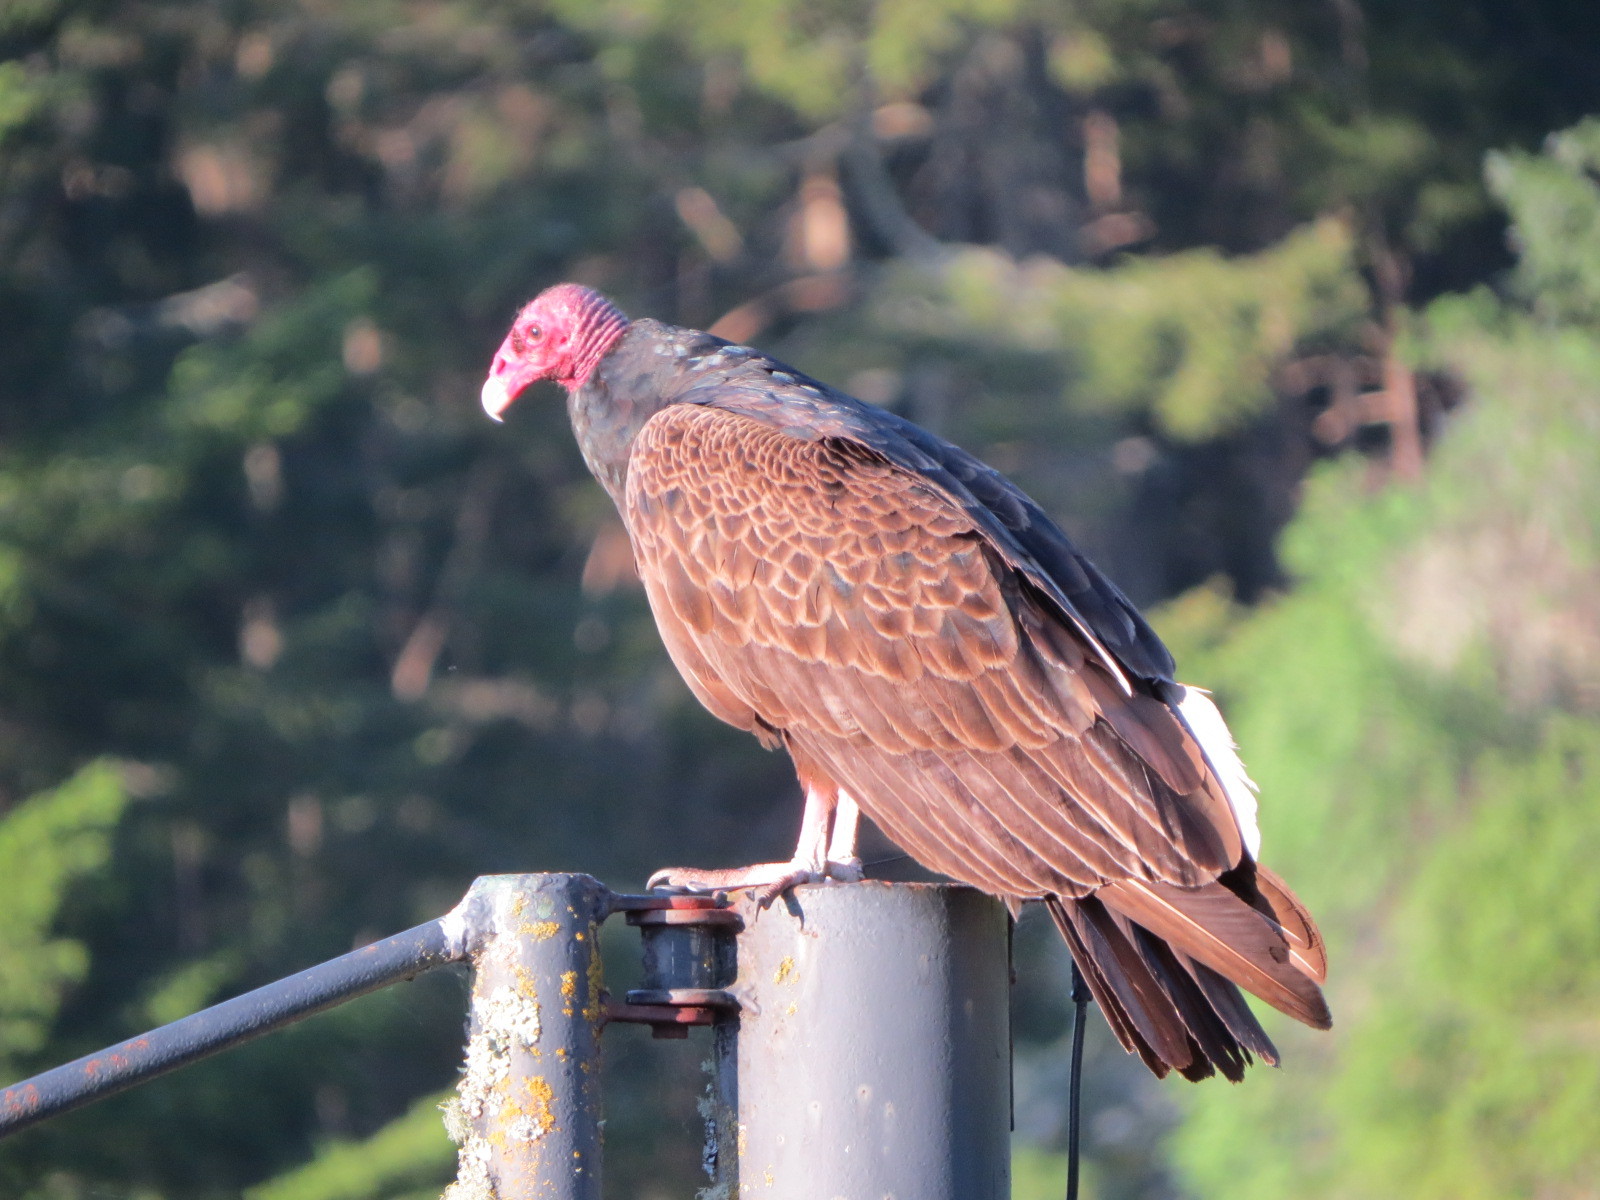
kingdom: Animalia
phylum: Chordata
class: Aves
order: Accipitriformes
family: Cathartidae
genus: Cathartes
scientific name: Cathartes aura
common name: Turkey vulture
